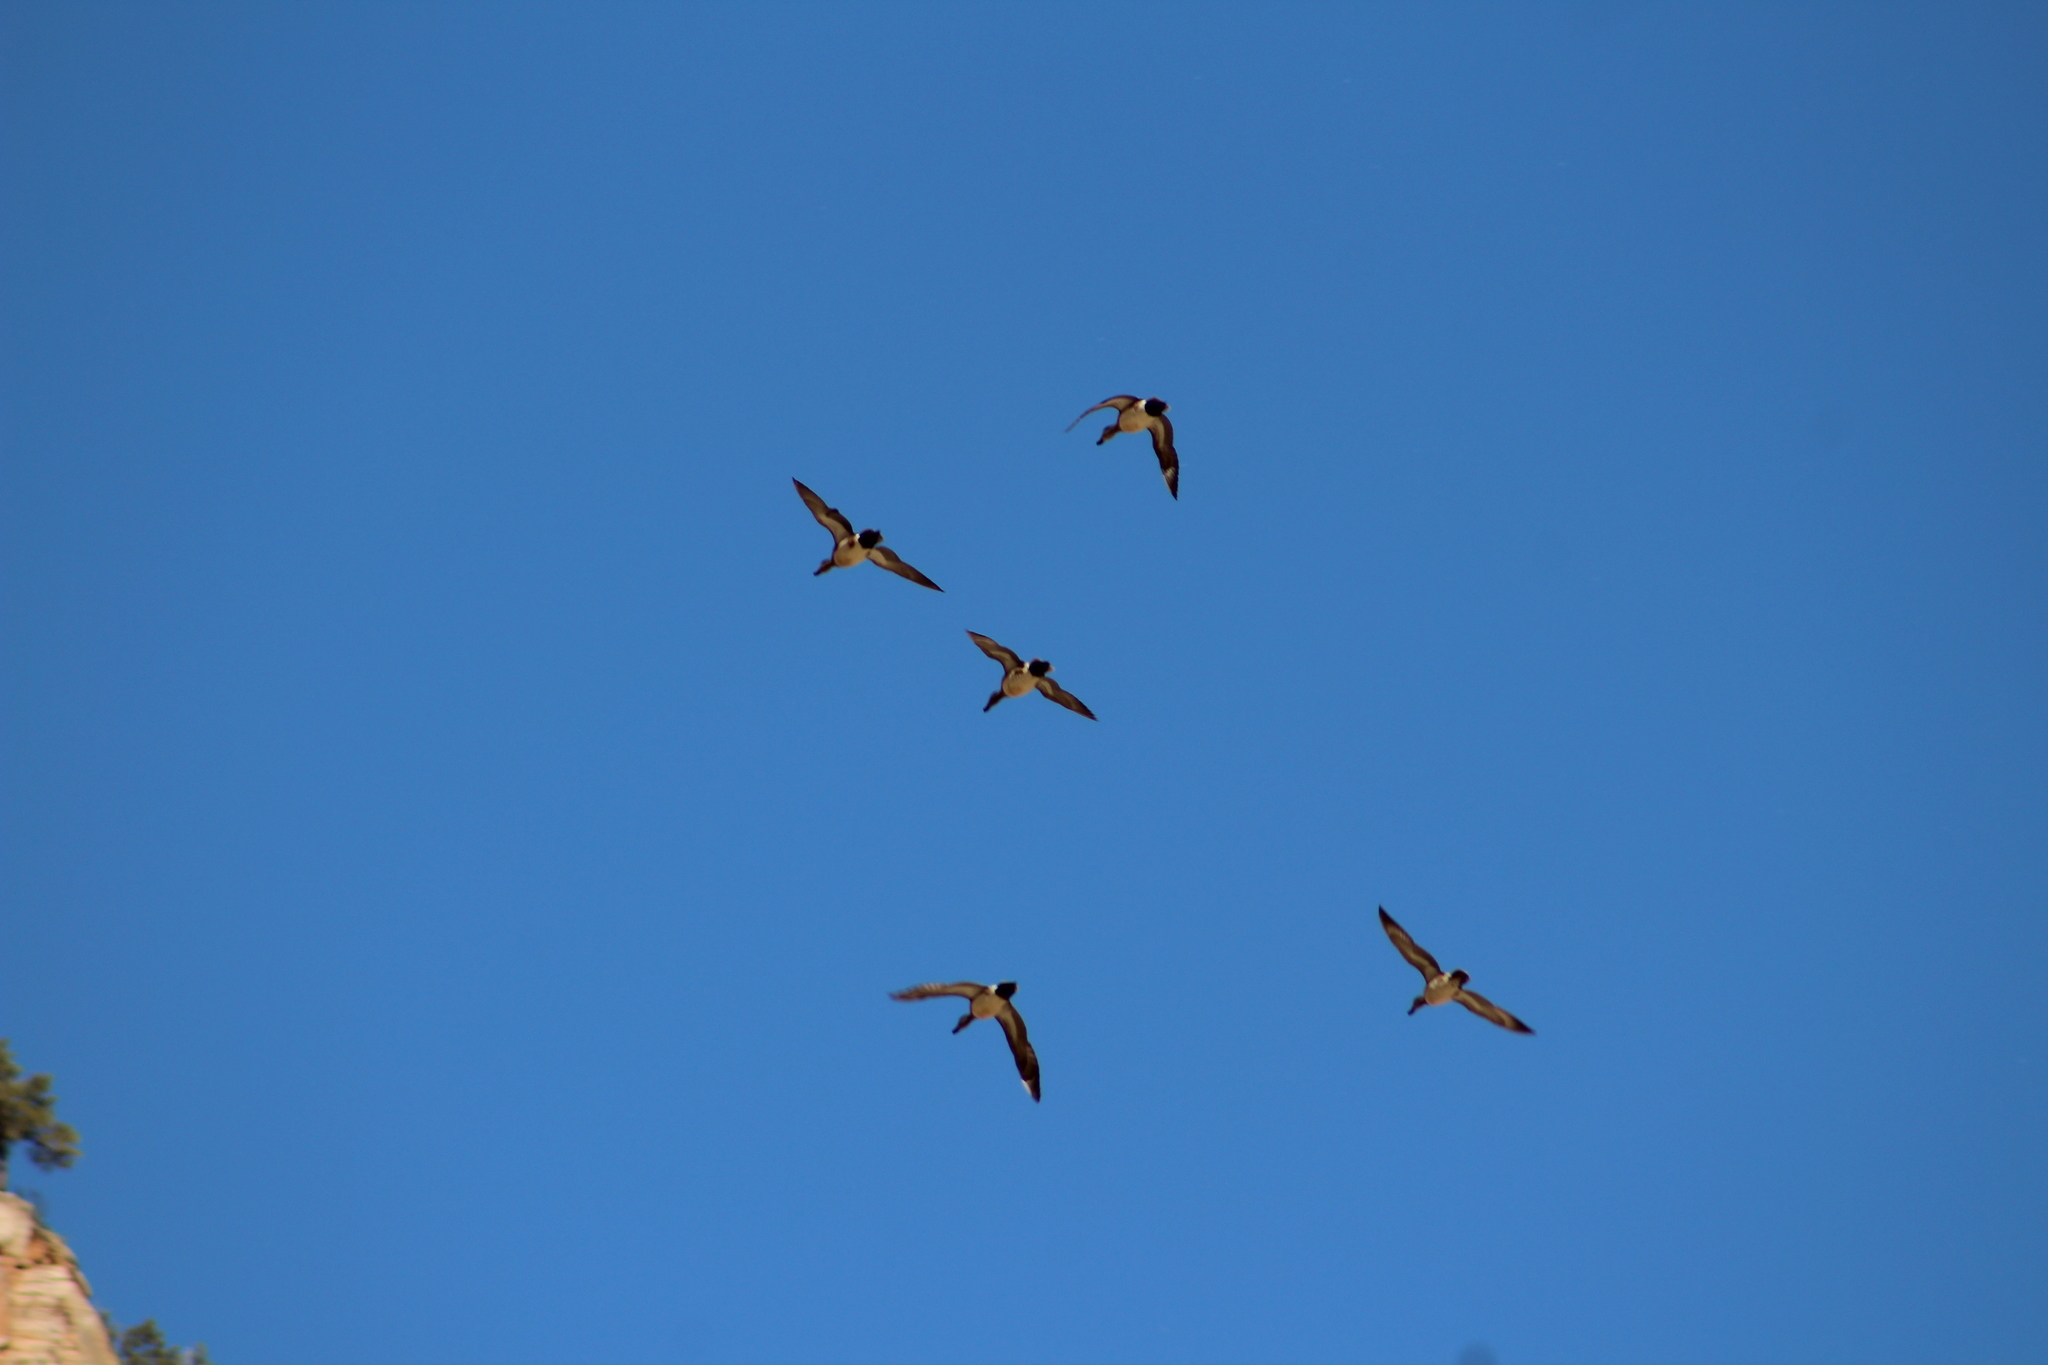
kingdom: Animalia
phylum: Chordata
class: Aves
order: Anseriformes
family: Anatidae
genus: Mareca
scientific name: Mareca americana
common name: American wigeon
